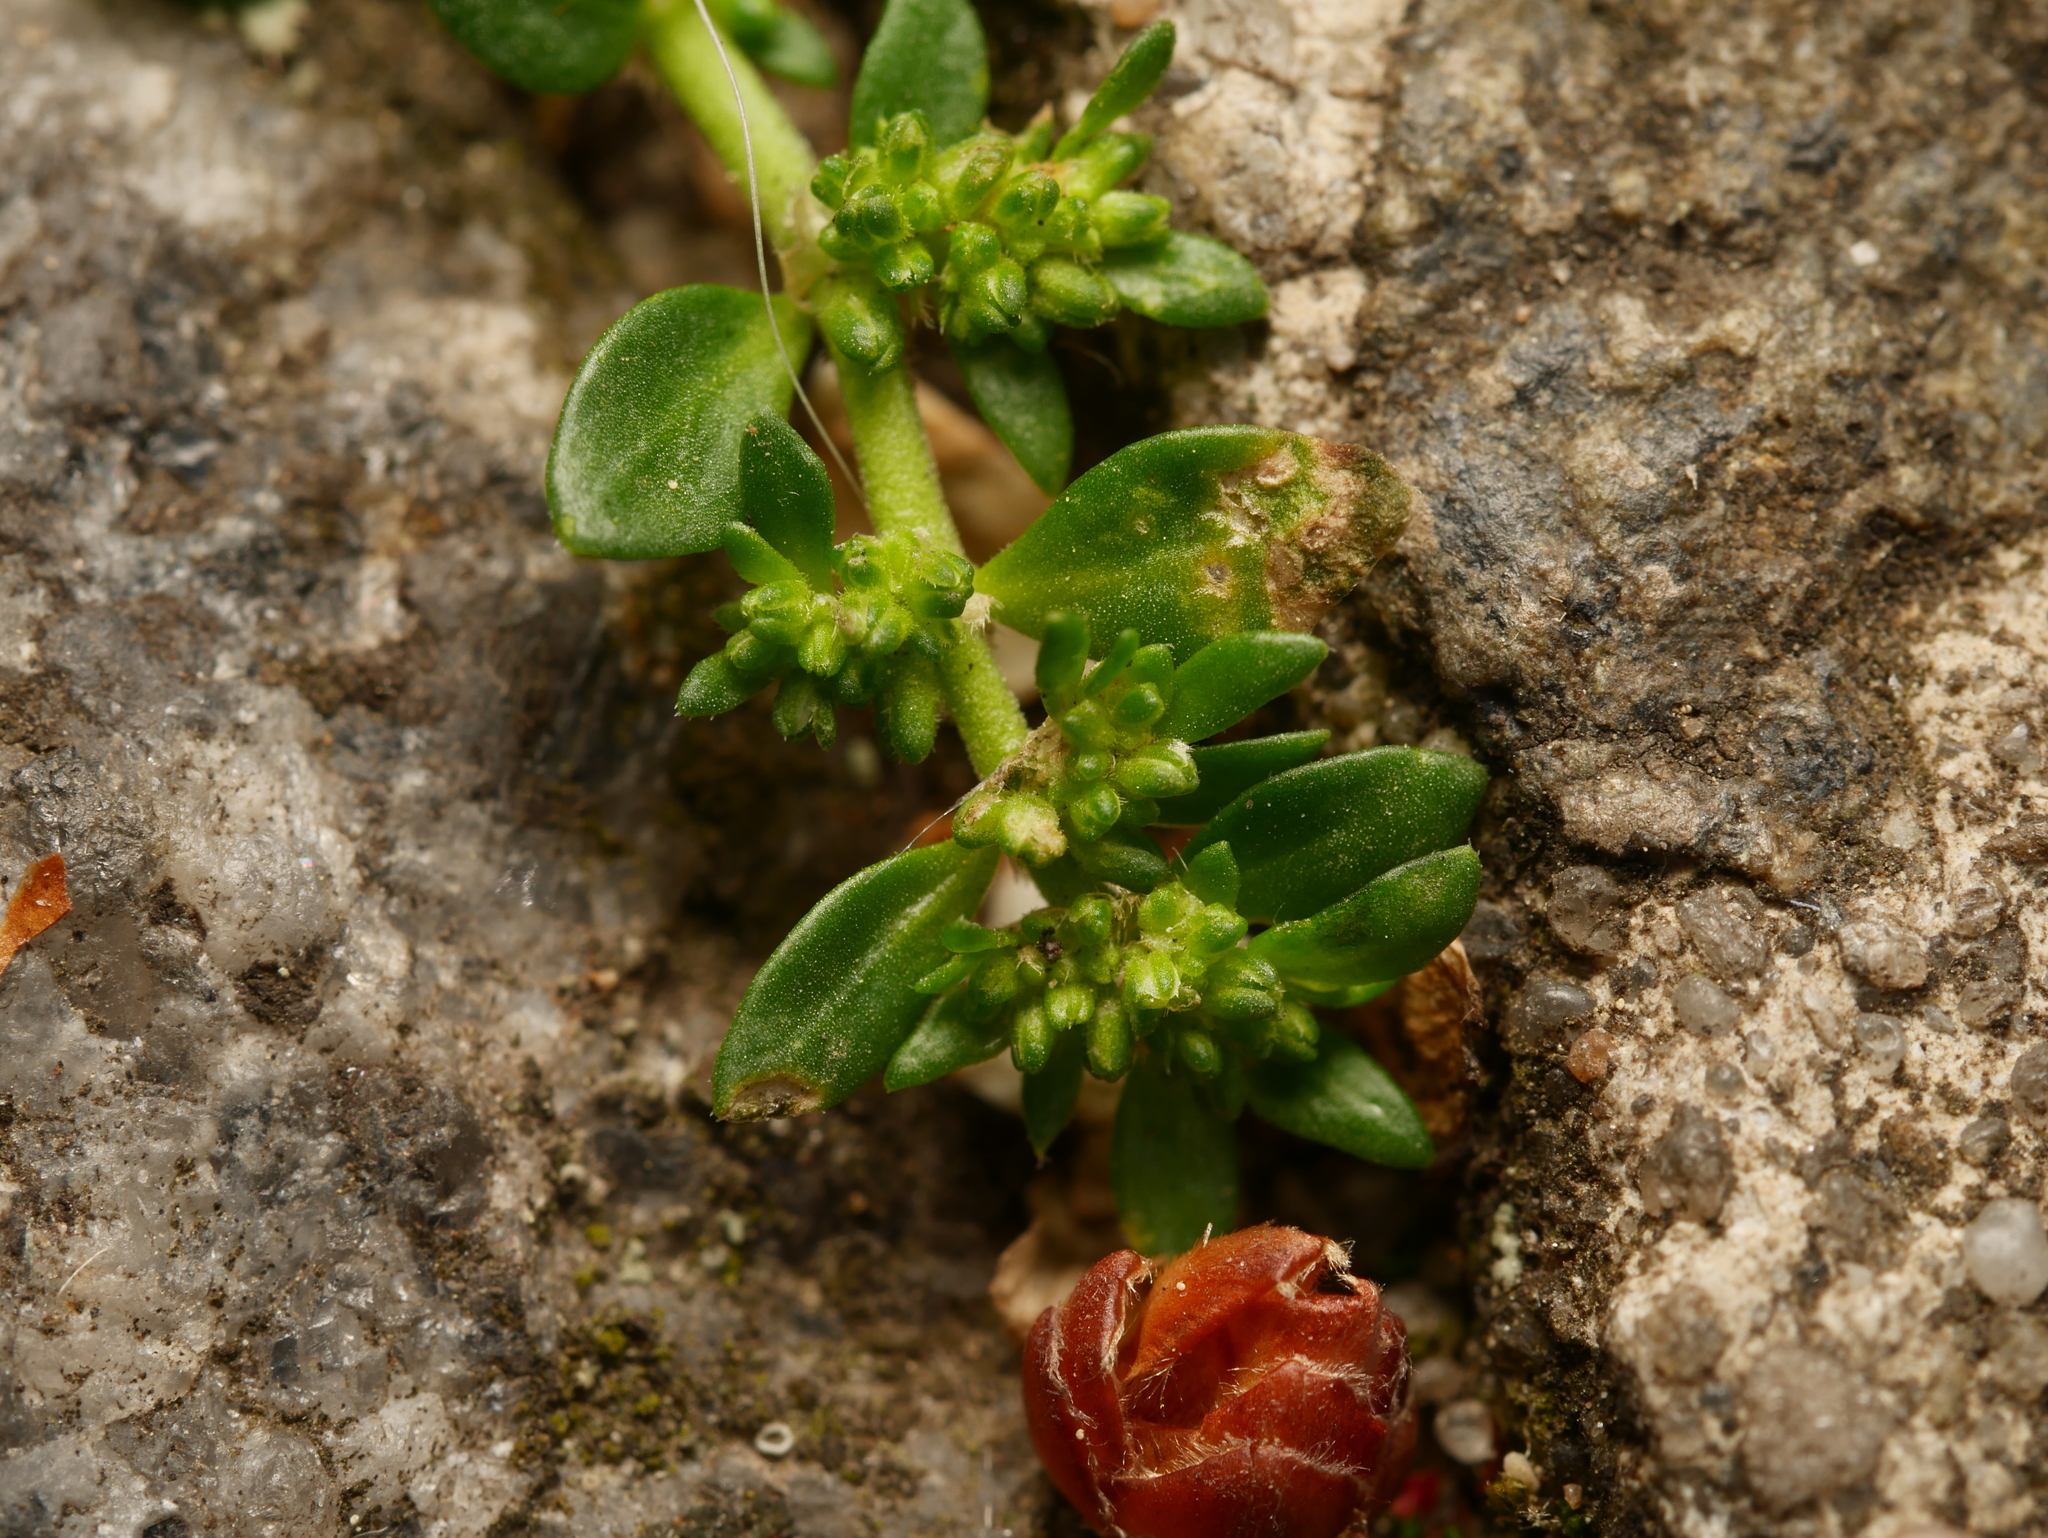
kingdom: Plantae
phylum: Tracheophyta
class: Magnoliopsida
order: Caryophyllales
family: Caryophyllaceae
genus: Herniaria
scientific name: Herniaria glabra
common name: Smooth rupturewort
